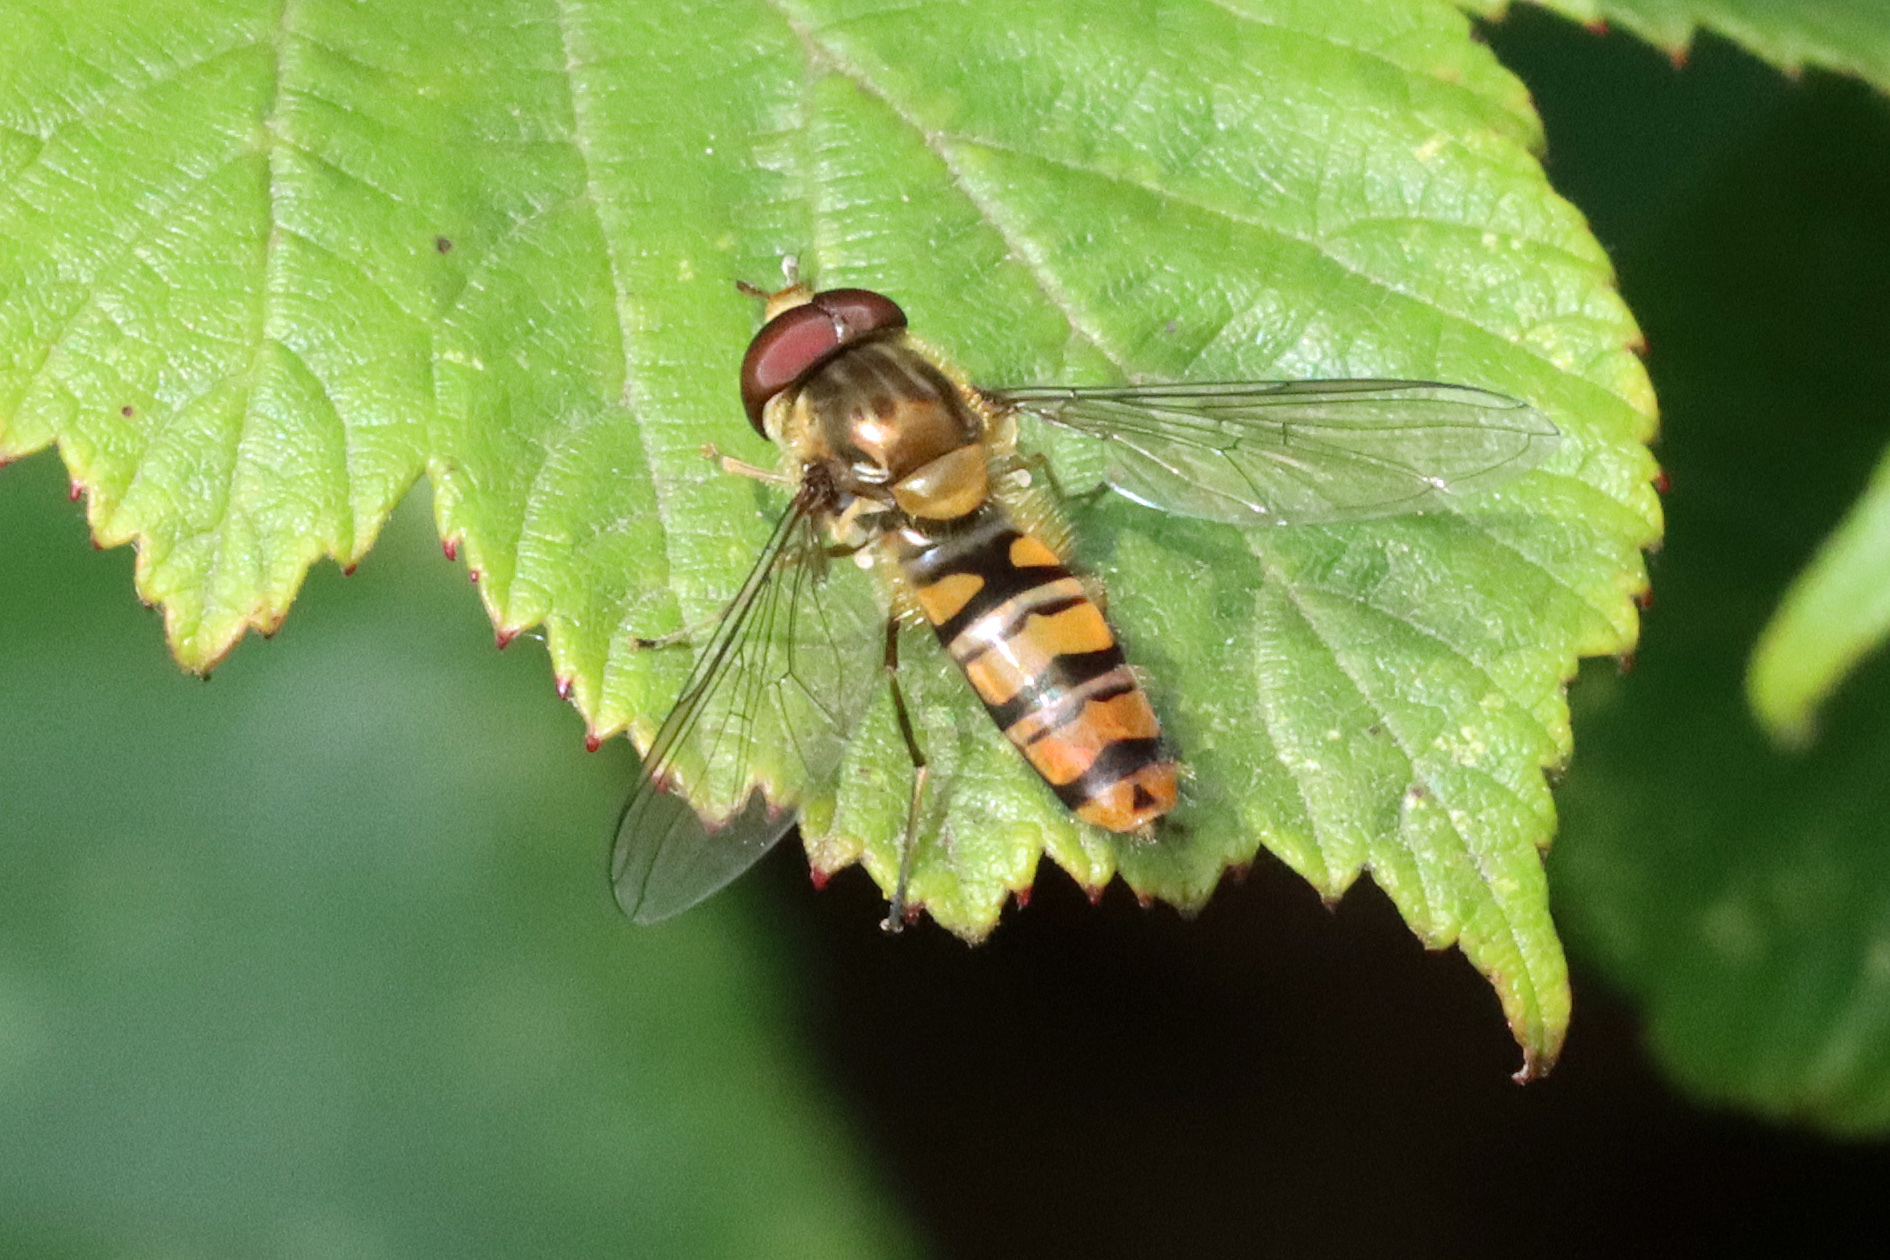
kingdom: Animalia
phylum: Arthropoda
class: Insecta
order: Diptera
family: Syrphidae
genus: Episyrphus
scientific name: Episyrphus balteatus
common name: Marmalade hoverfly
